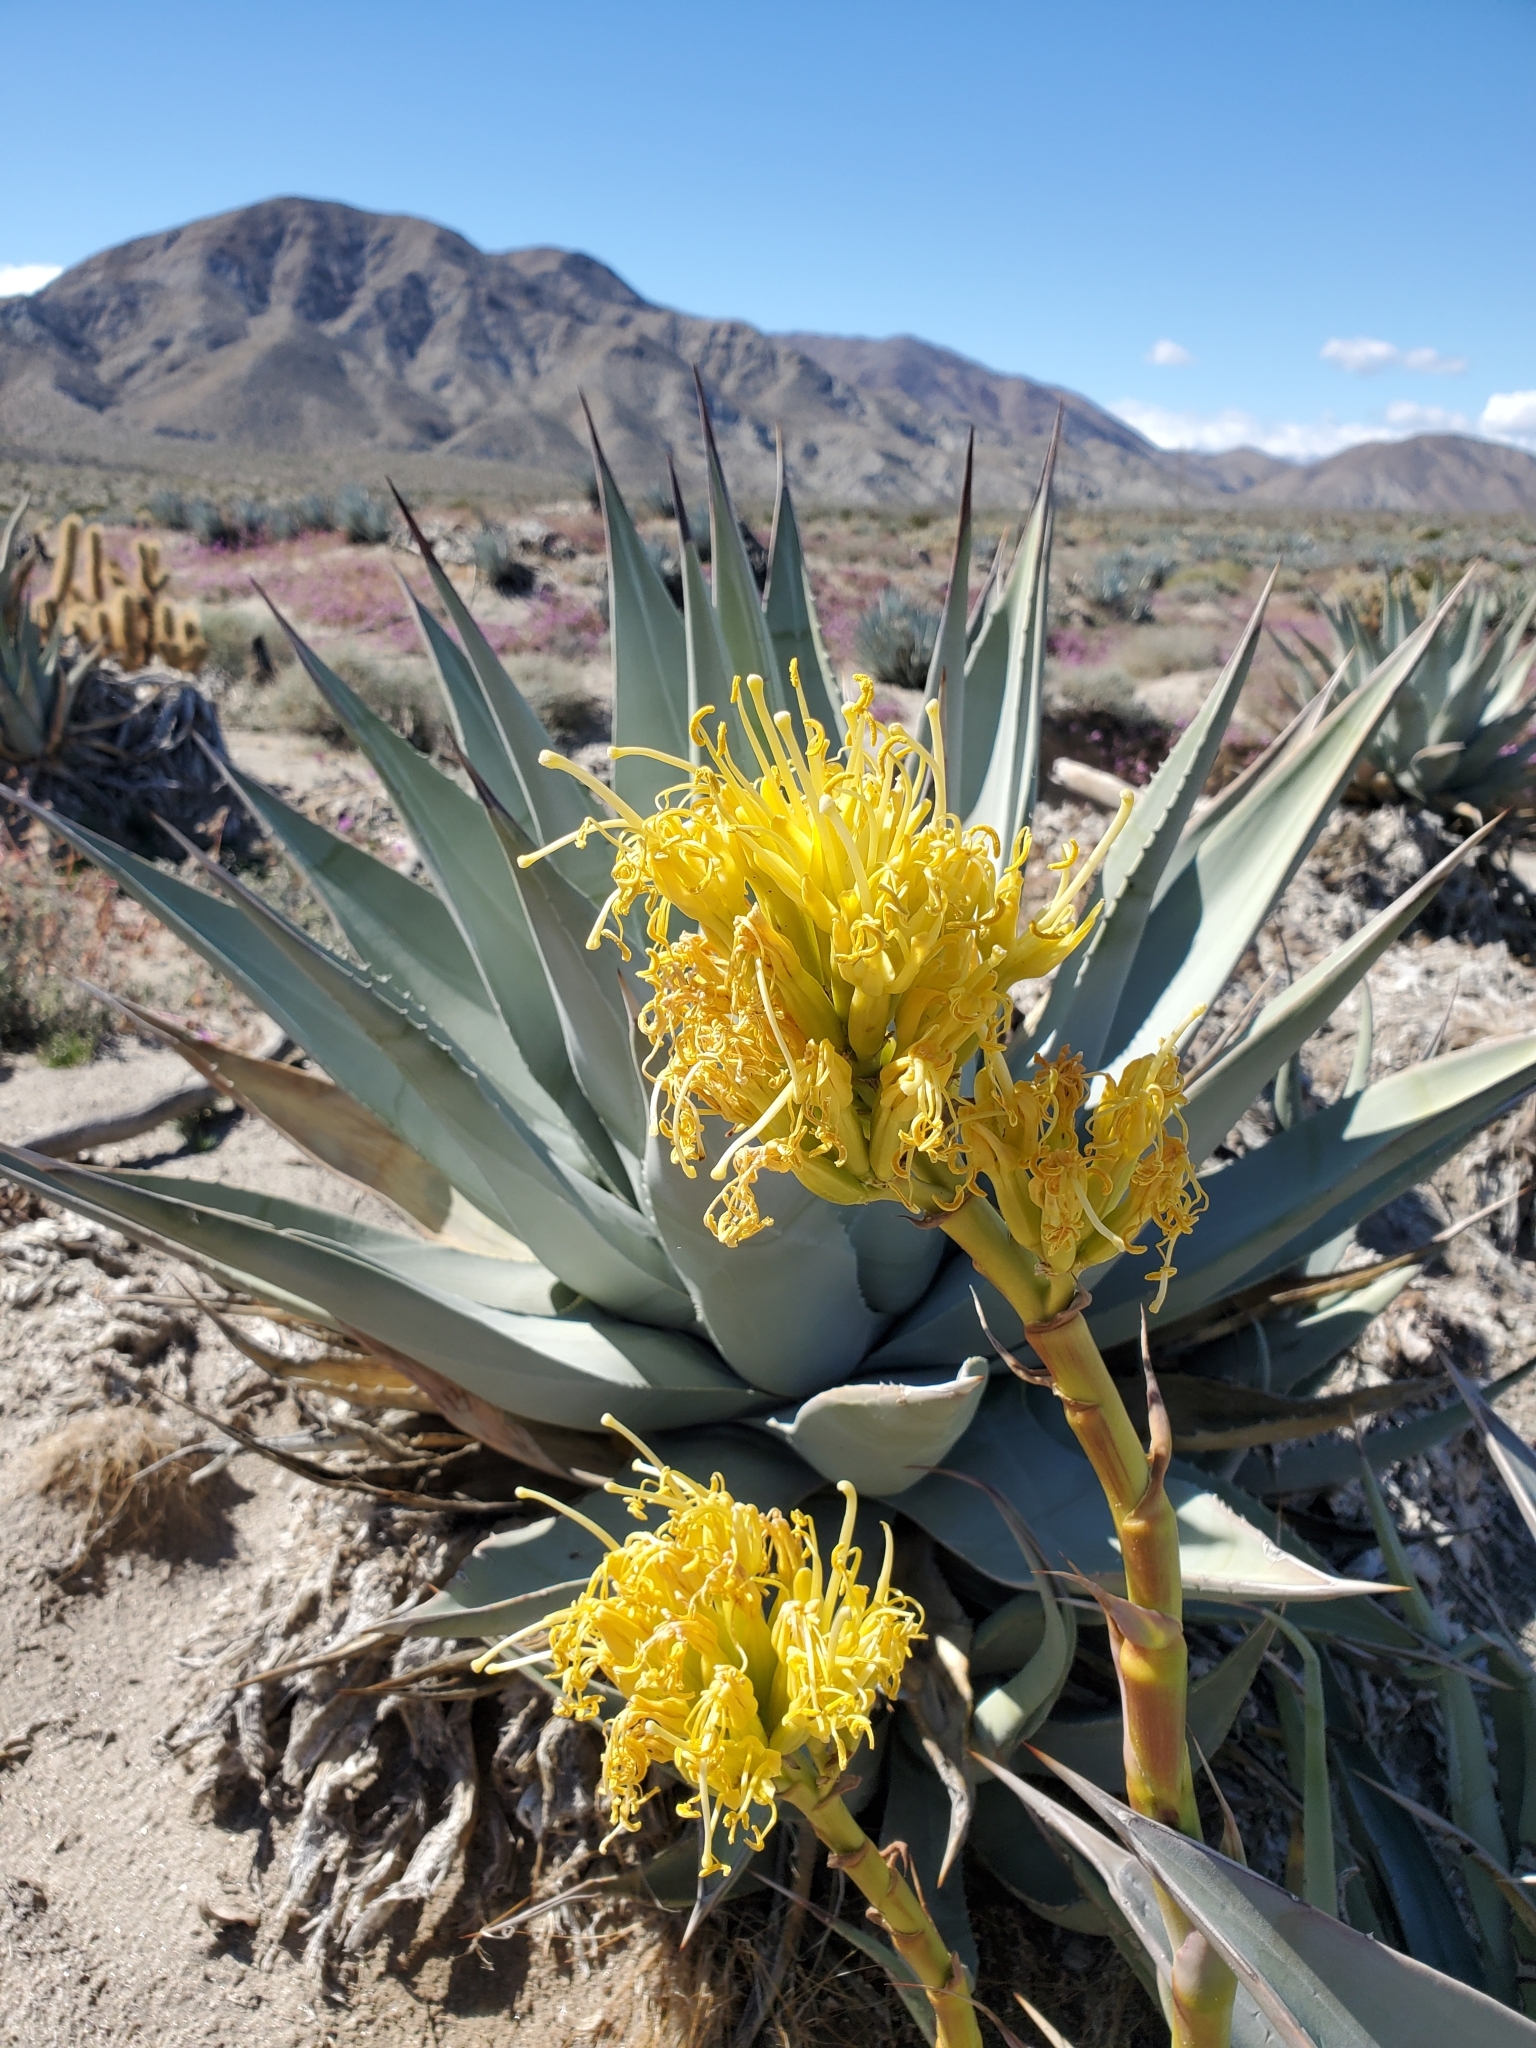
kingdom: Plantae
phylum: Tracheophyta
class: Liliopsida
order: Asparagales
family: Asparagaceae
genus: Agave
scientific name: Agave deserti
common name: Desert agave
